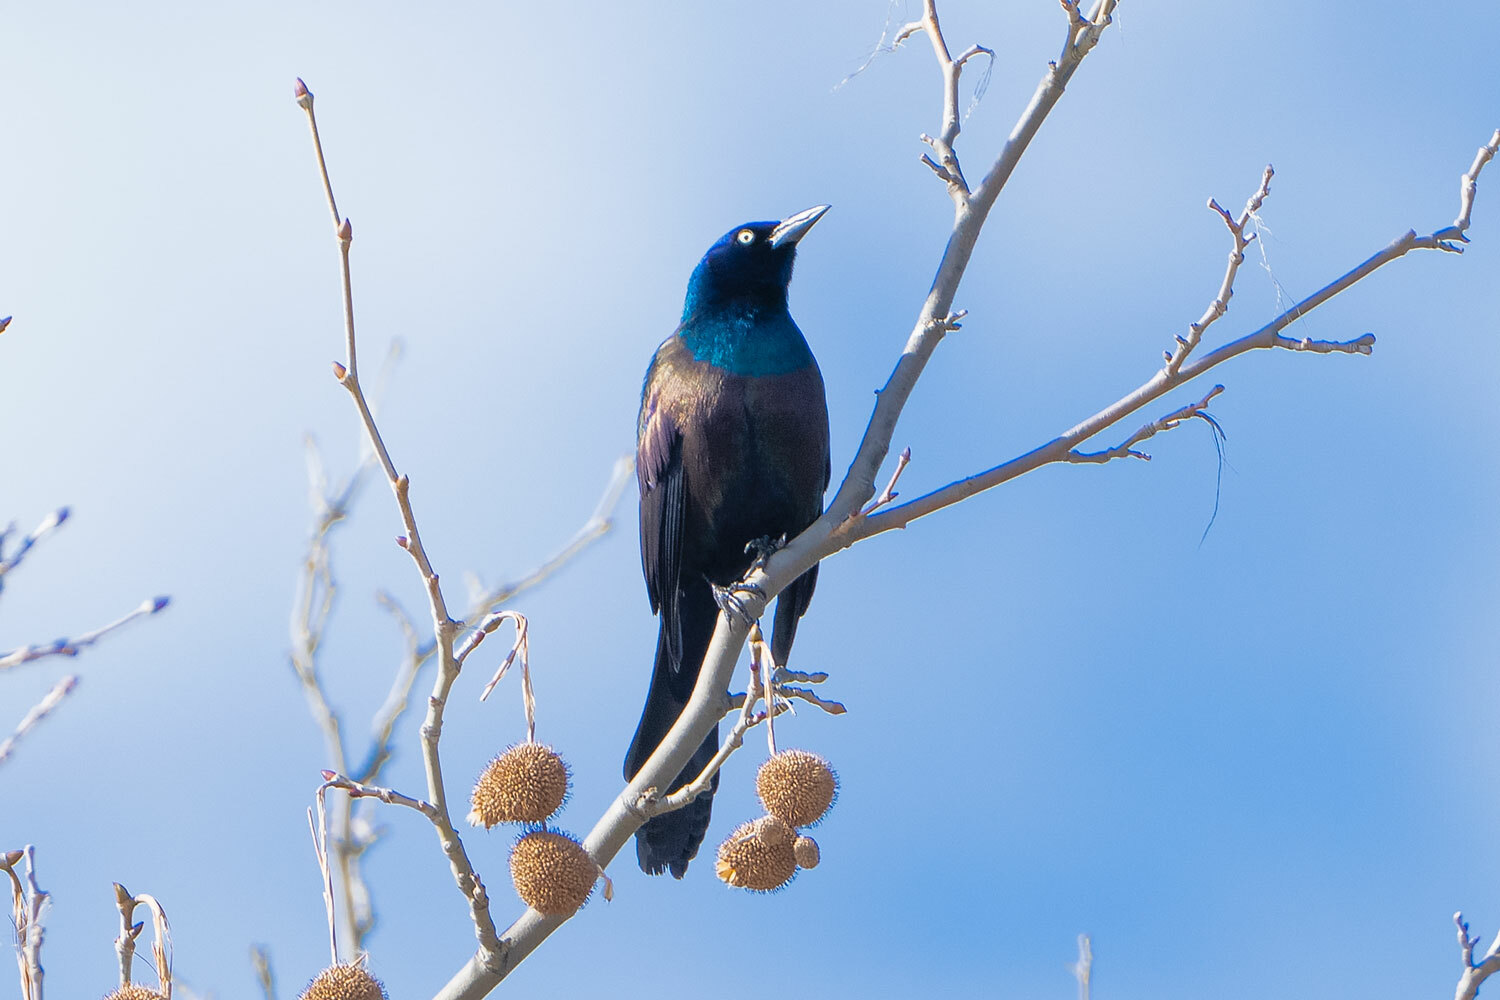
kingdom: Animalia
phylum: Chordata
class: Aves
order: Passeriformes
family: Icteridae
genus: Quiscalus
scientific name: Quiscalus quiscula
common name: Common grackle
